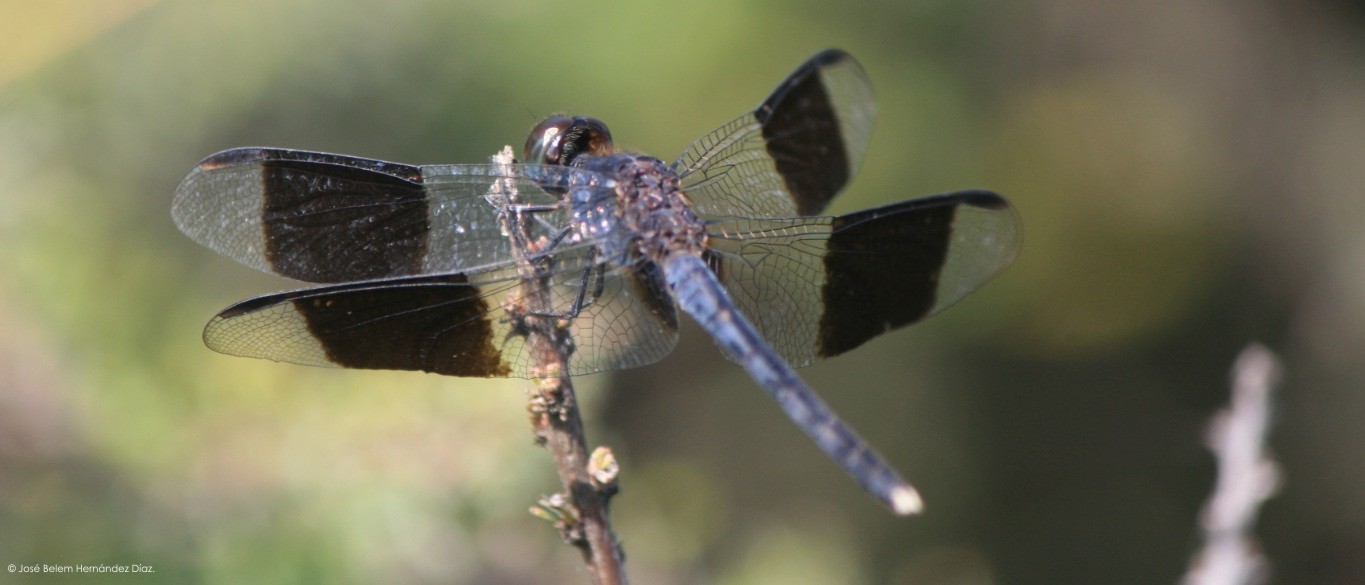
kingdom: Animalia
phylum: Arthropoda
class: Insecta
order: Odonata
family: Libellulidae
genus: Erythrodiplax
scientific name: Erythrodiplax umbrata
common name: Band-winged dragonlet
